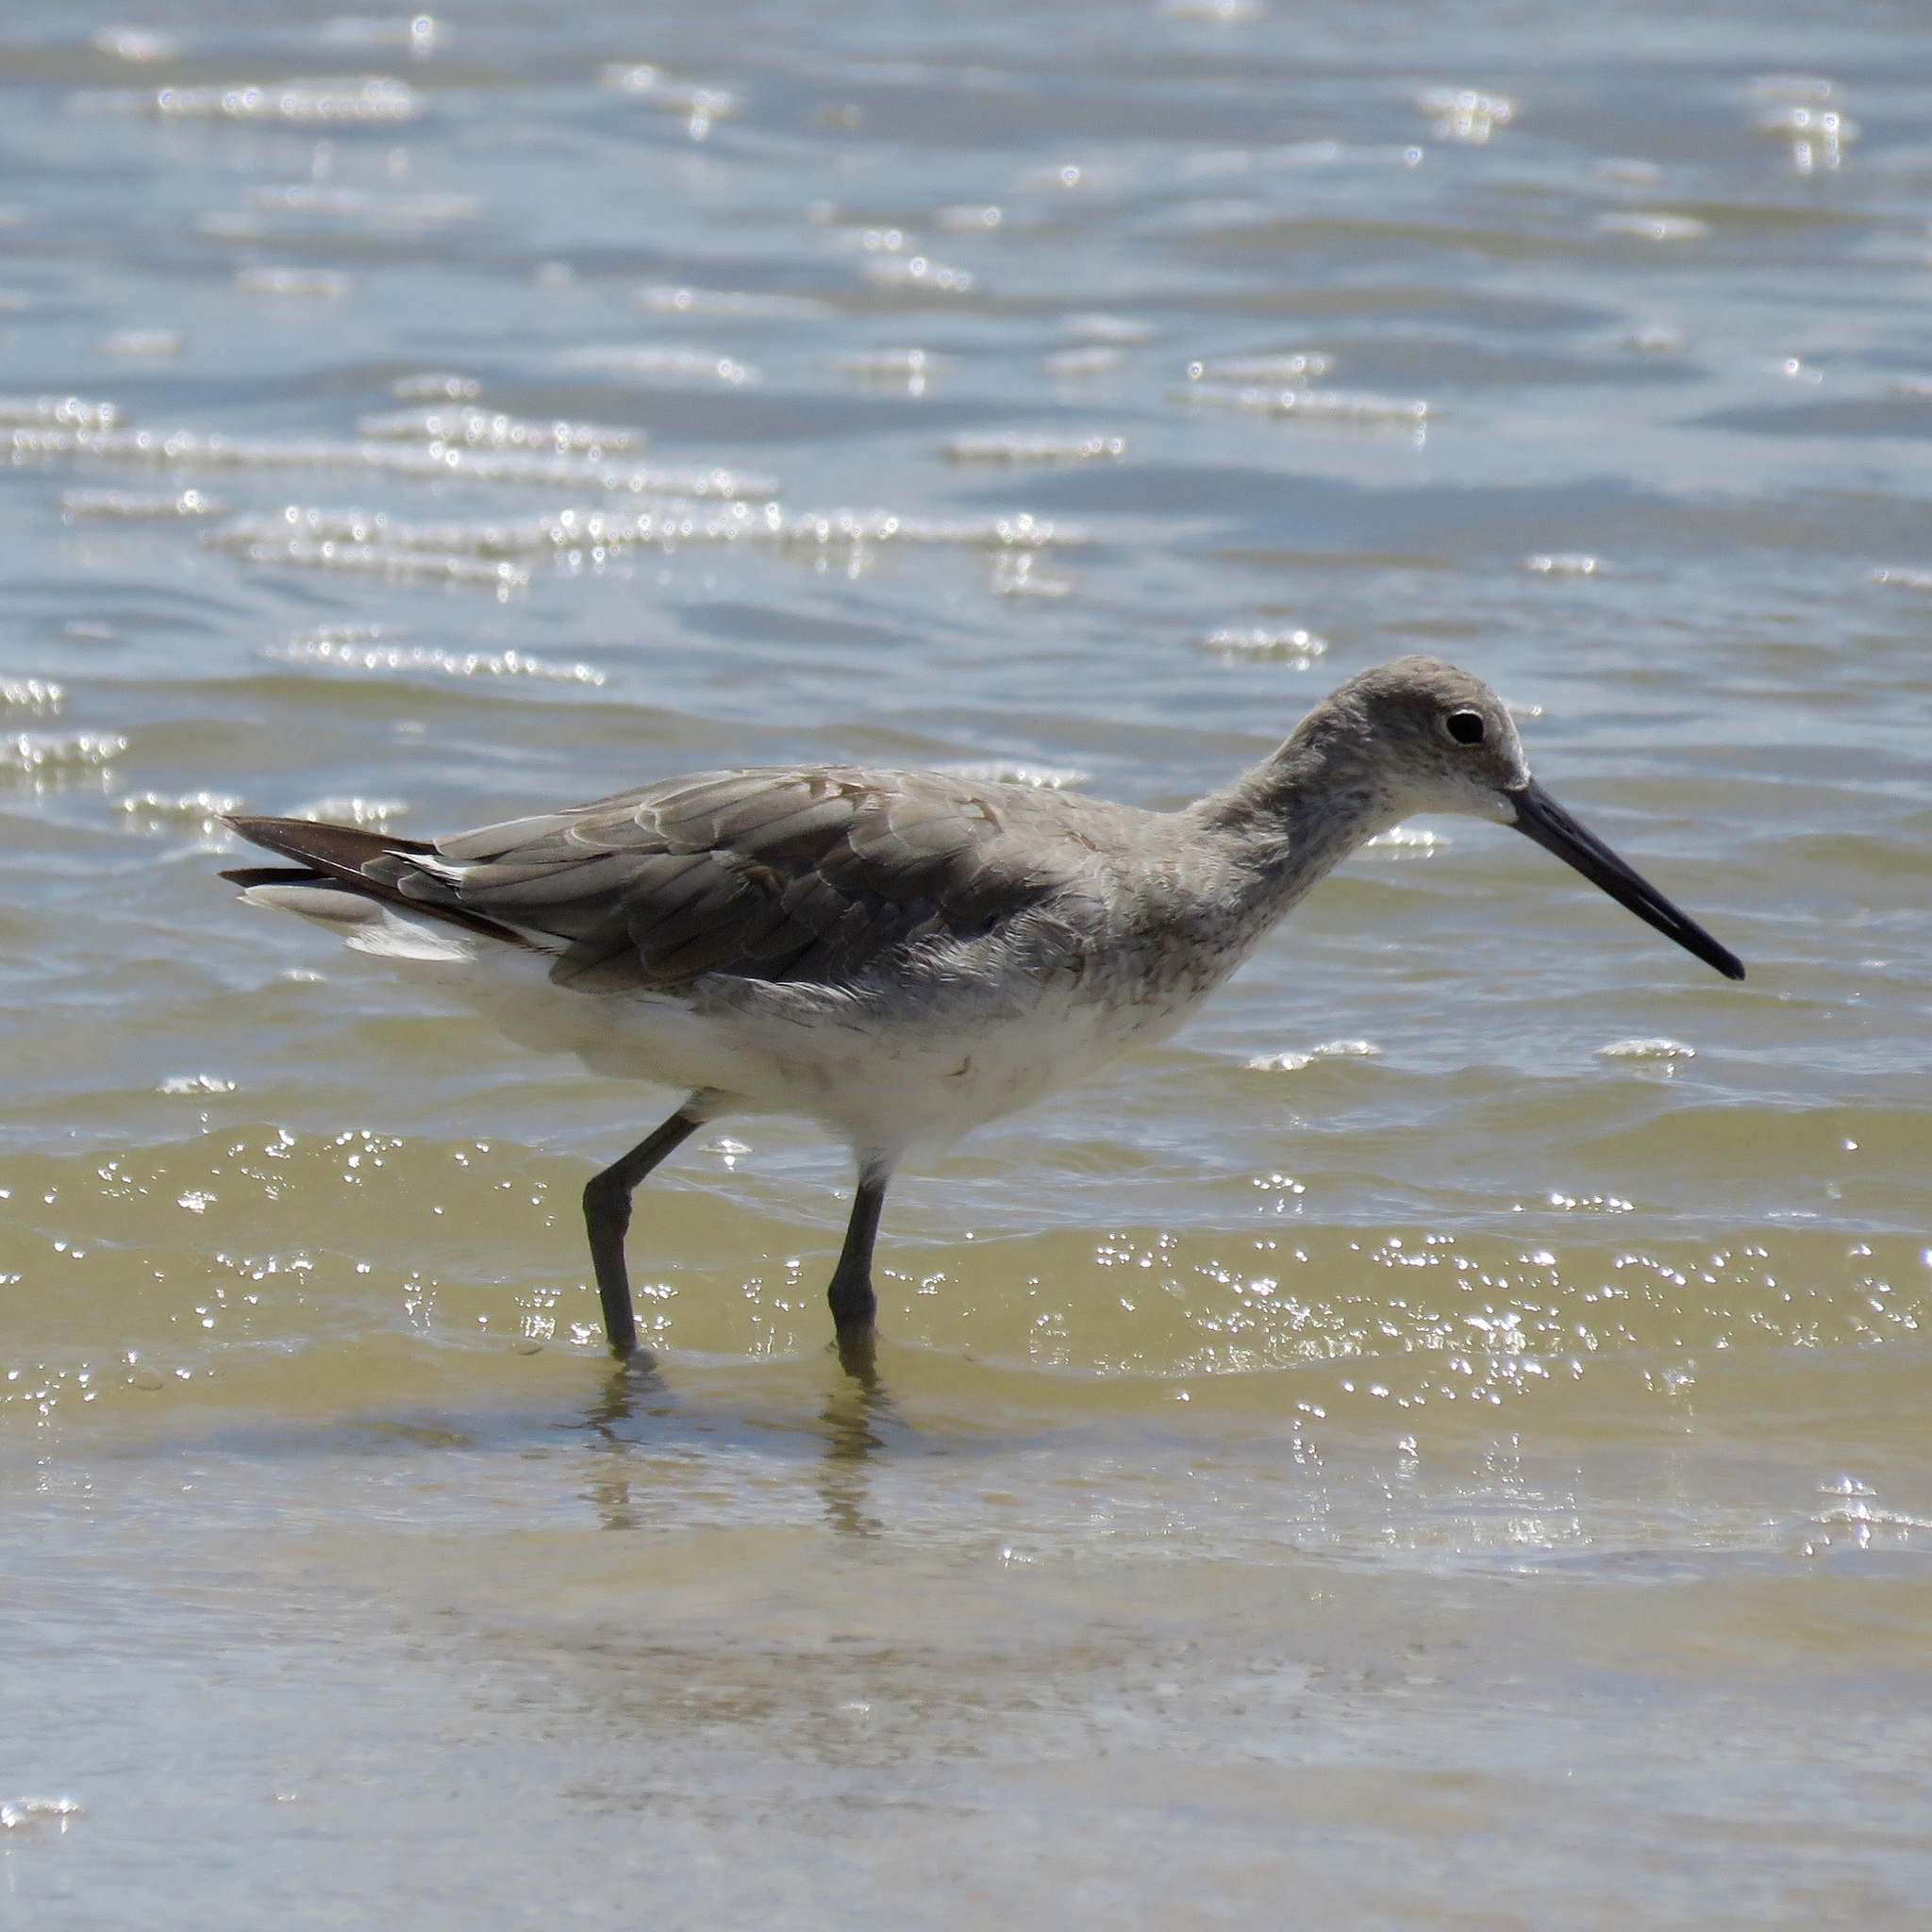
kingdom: Animalia
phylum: Chordata
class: Aves
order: Charadriiformes
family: Scolopacidae
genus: Tringa
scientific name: Tringa semipalmata
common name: Willet
